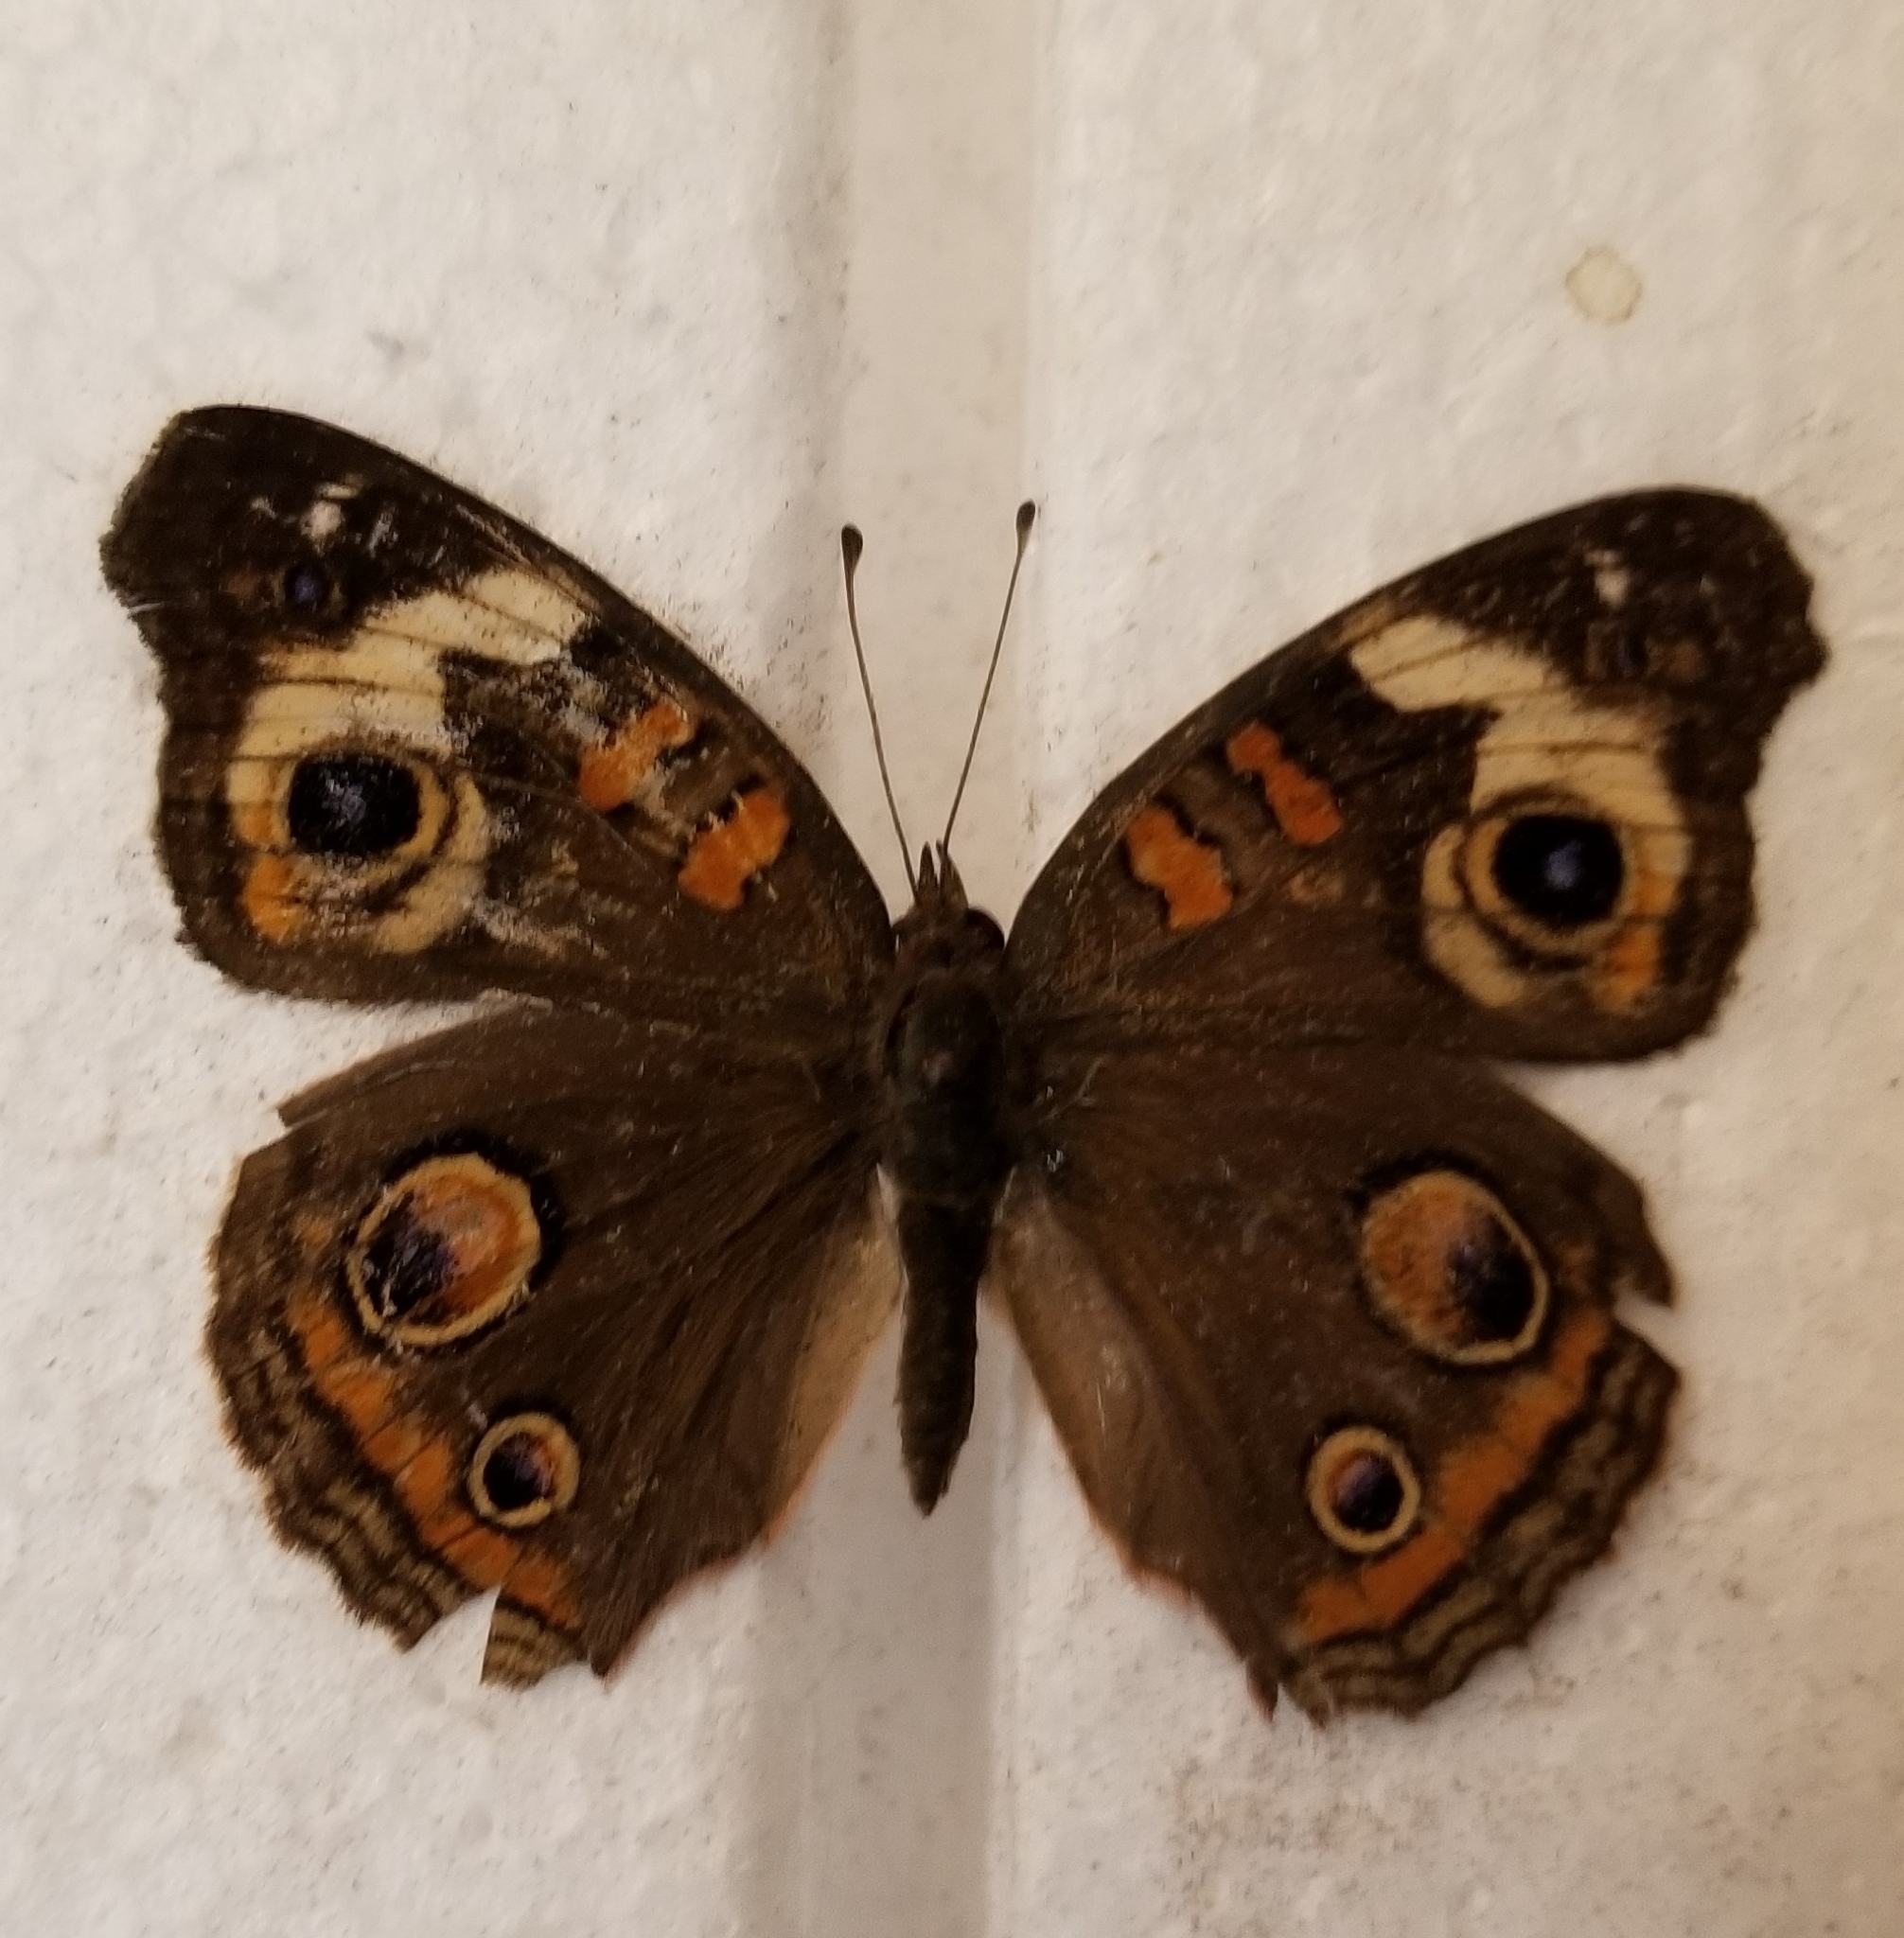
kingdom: Animalia
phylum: Arthropoda
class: Insecta
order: Lepidoptera
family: Nymphalidae
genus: Junonia
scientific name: Junonia coenia
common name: Common buckeye
